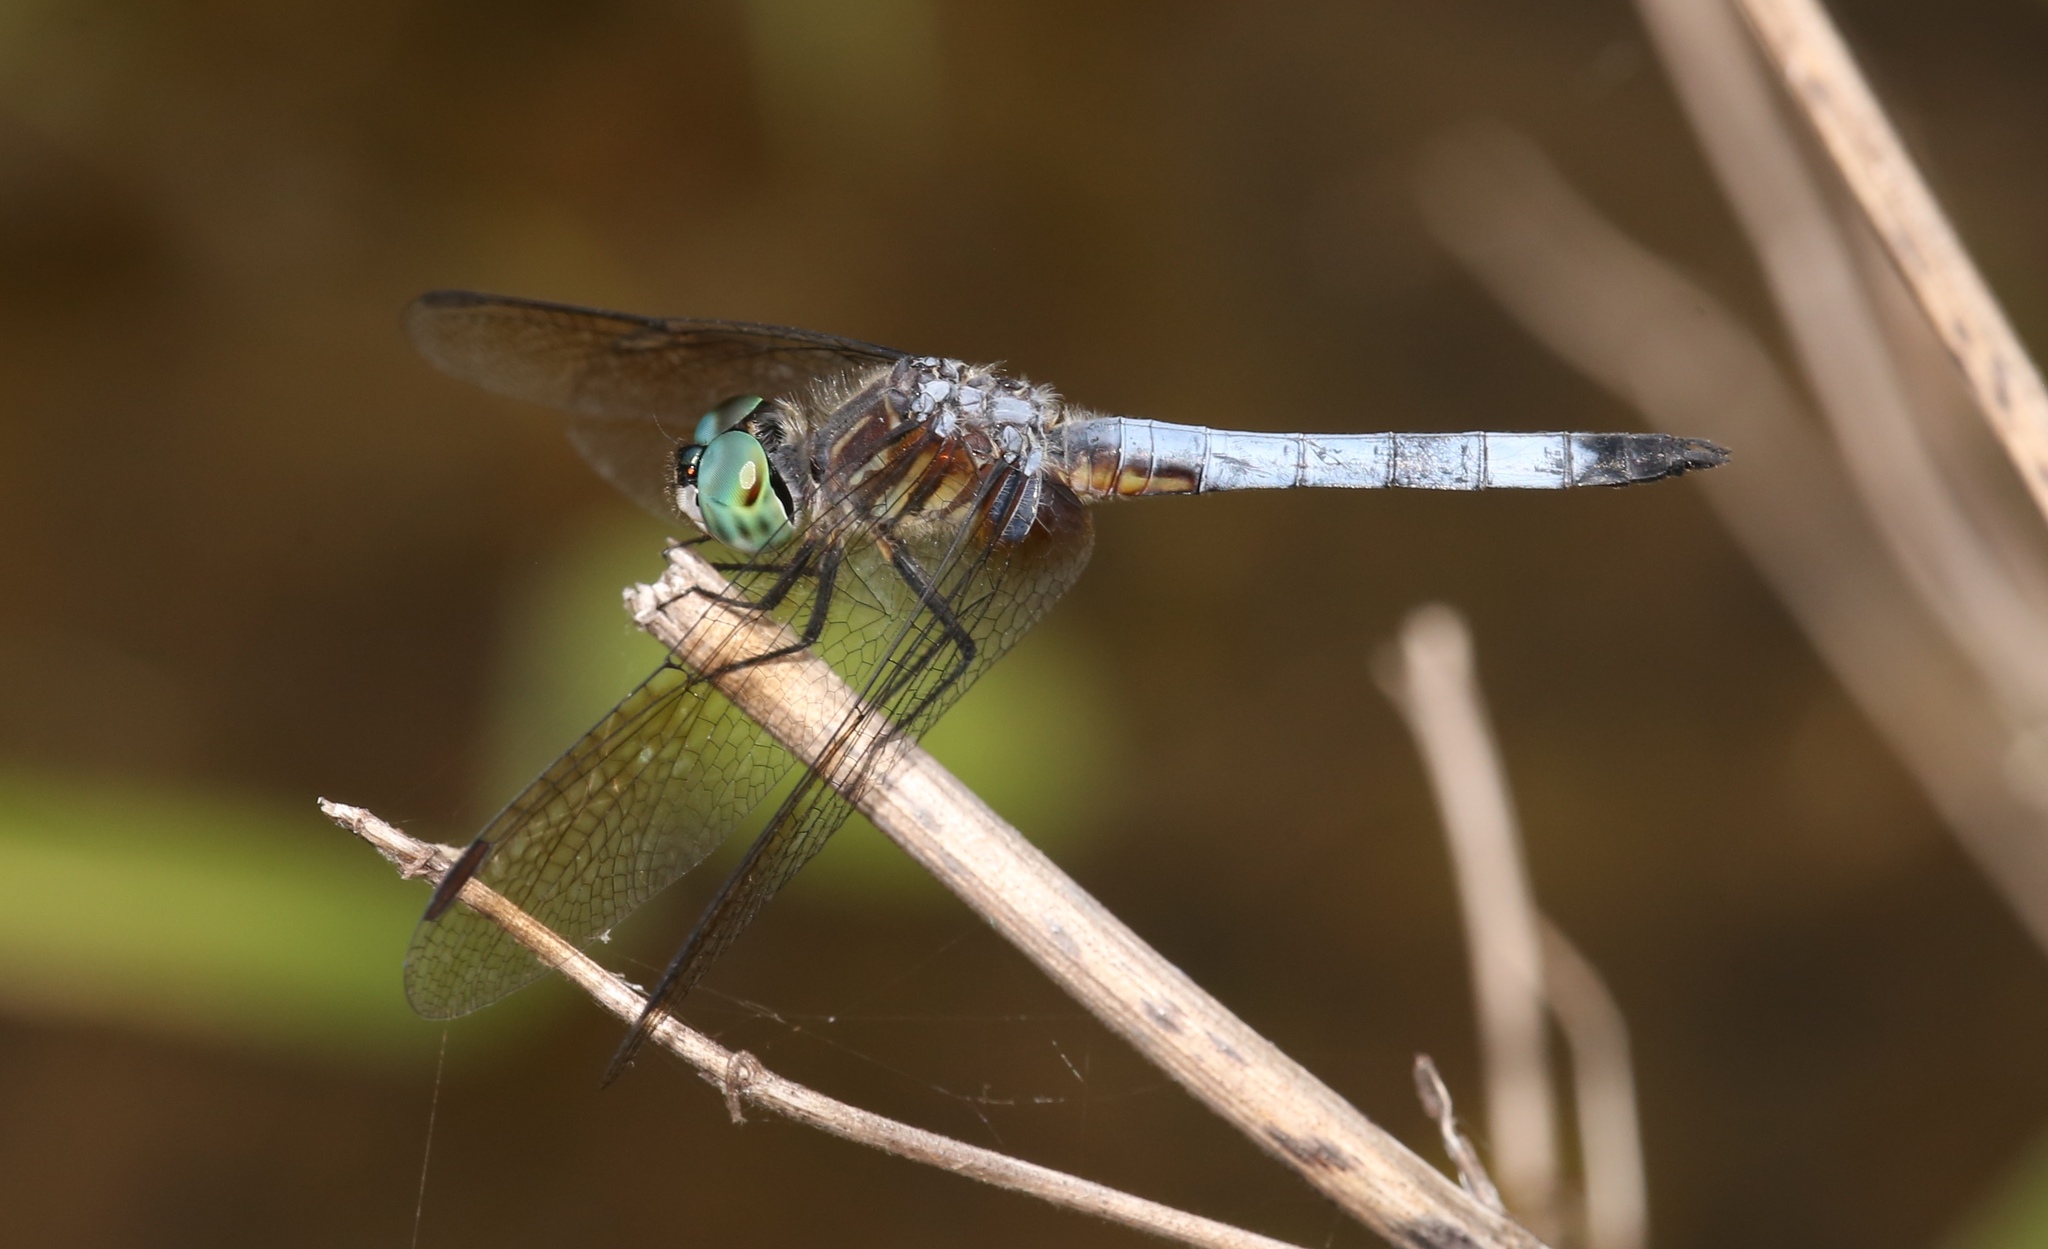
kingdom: Animalia
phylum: Arthropoda
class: Insecta
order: Odonata
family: Libellulidae
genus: Pachydiplax
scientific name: Pachydiplax longipennis
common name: Blue dasher
